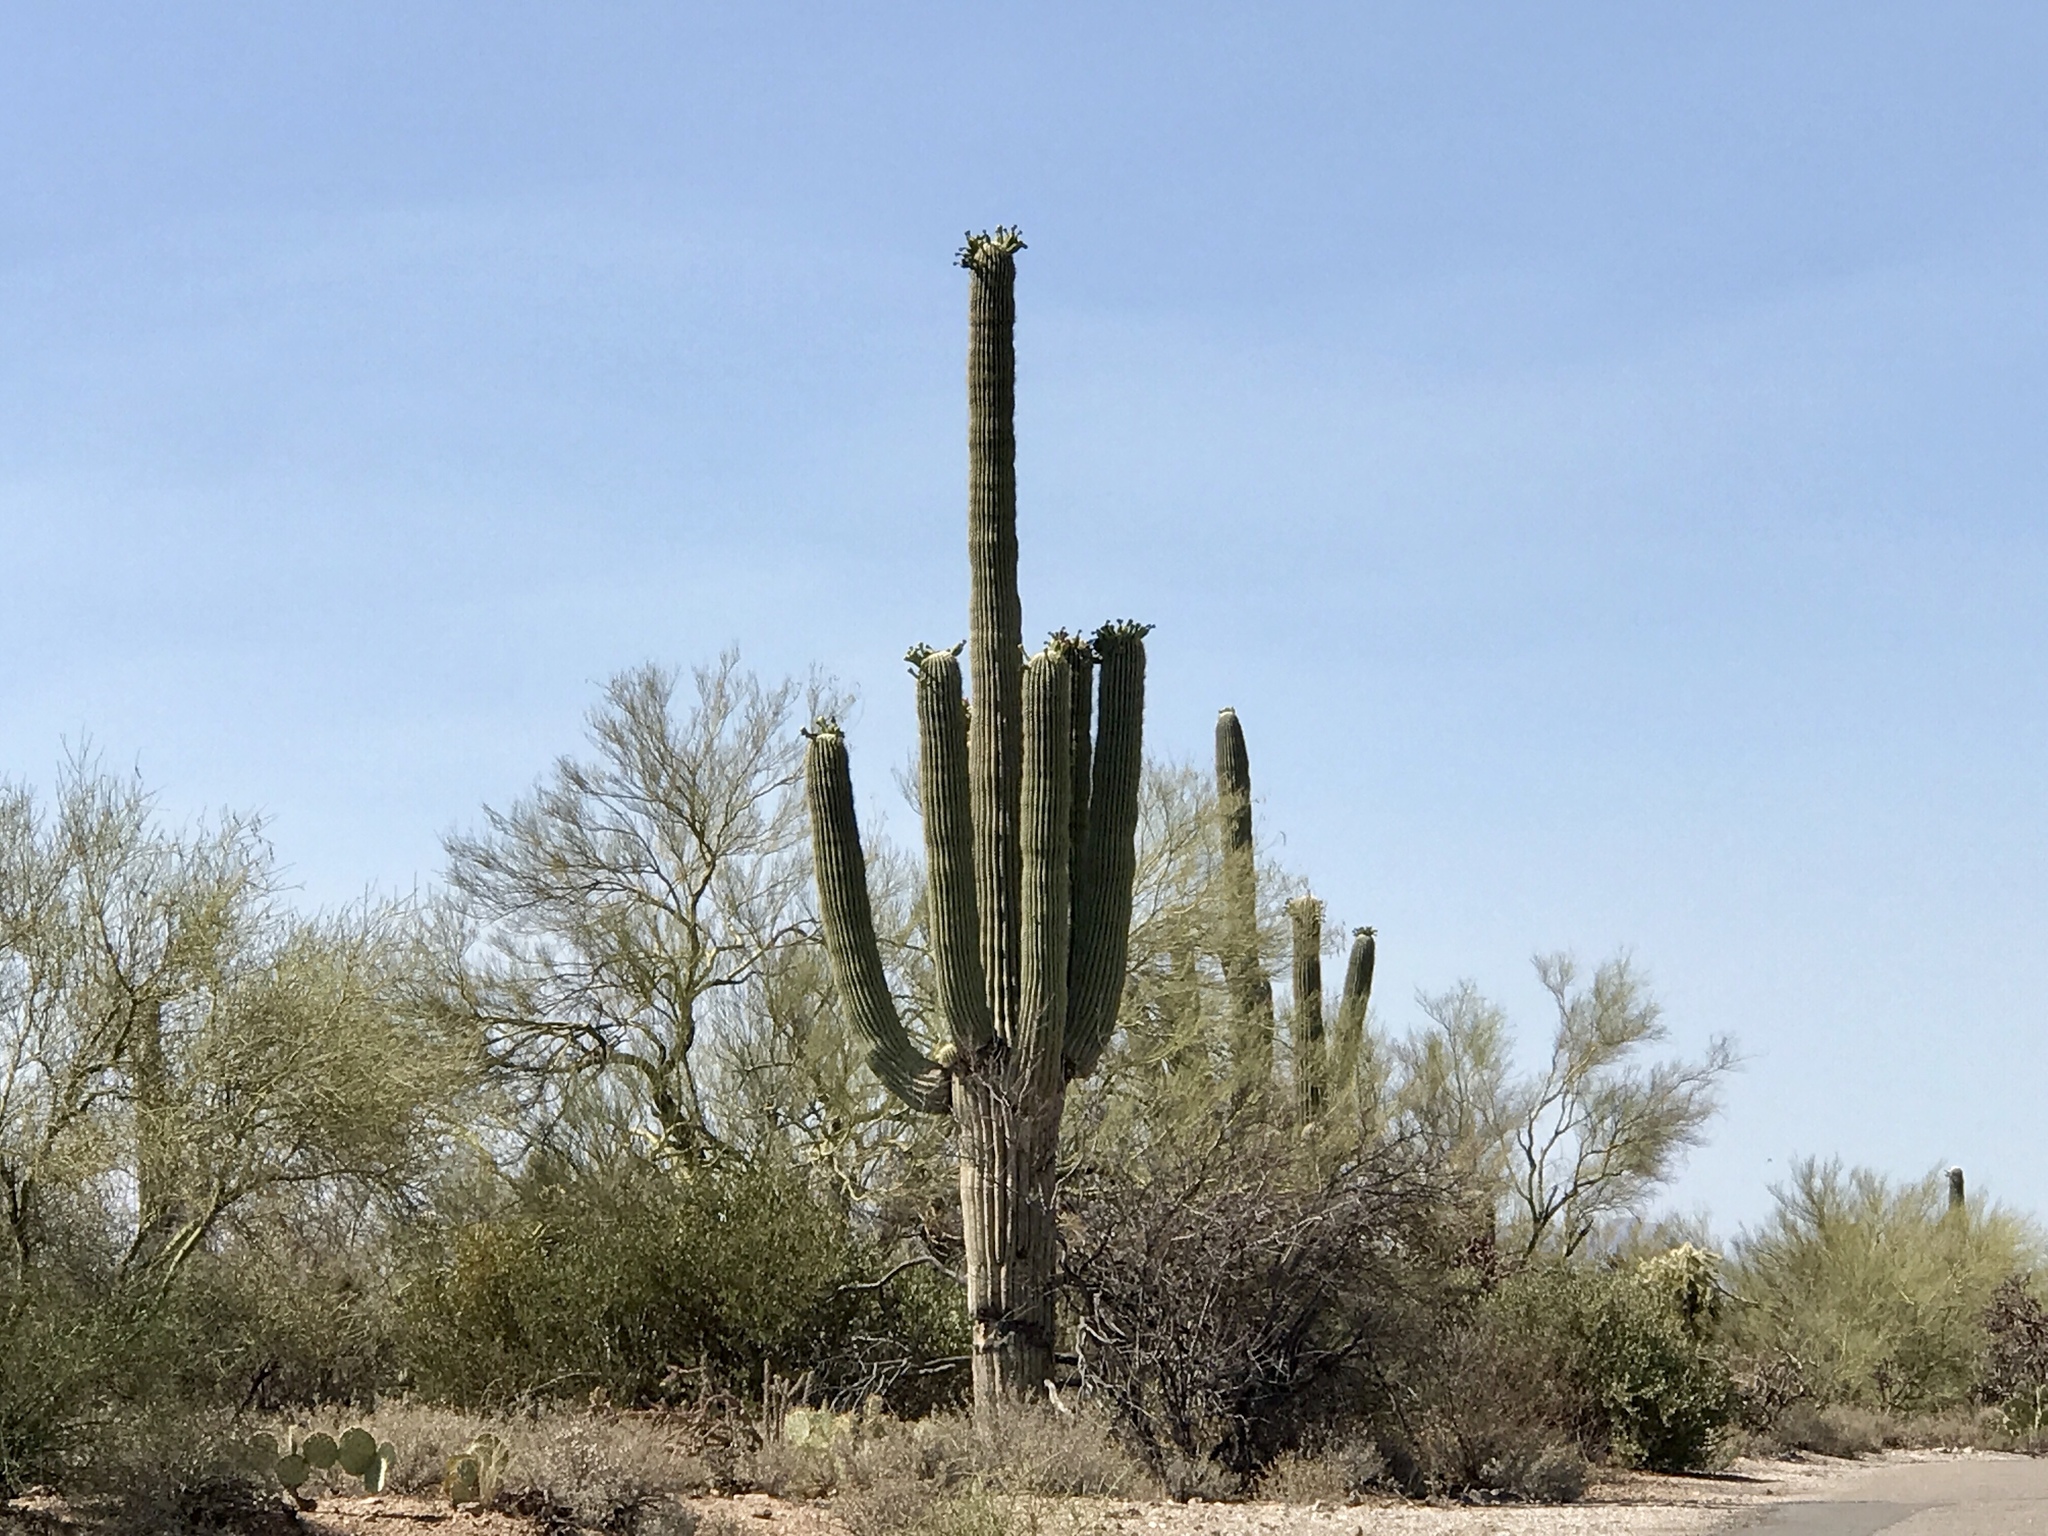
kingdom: Plantae
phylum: Tracheophyta
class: Magnoliopsida
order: Caryophyllales
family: Cactaceae
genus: Carnegiea
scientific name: Carnegiea gigantea
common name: Saguaro
